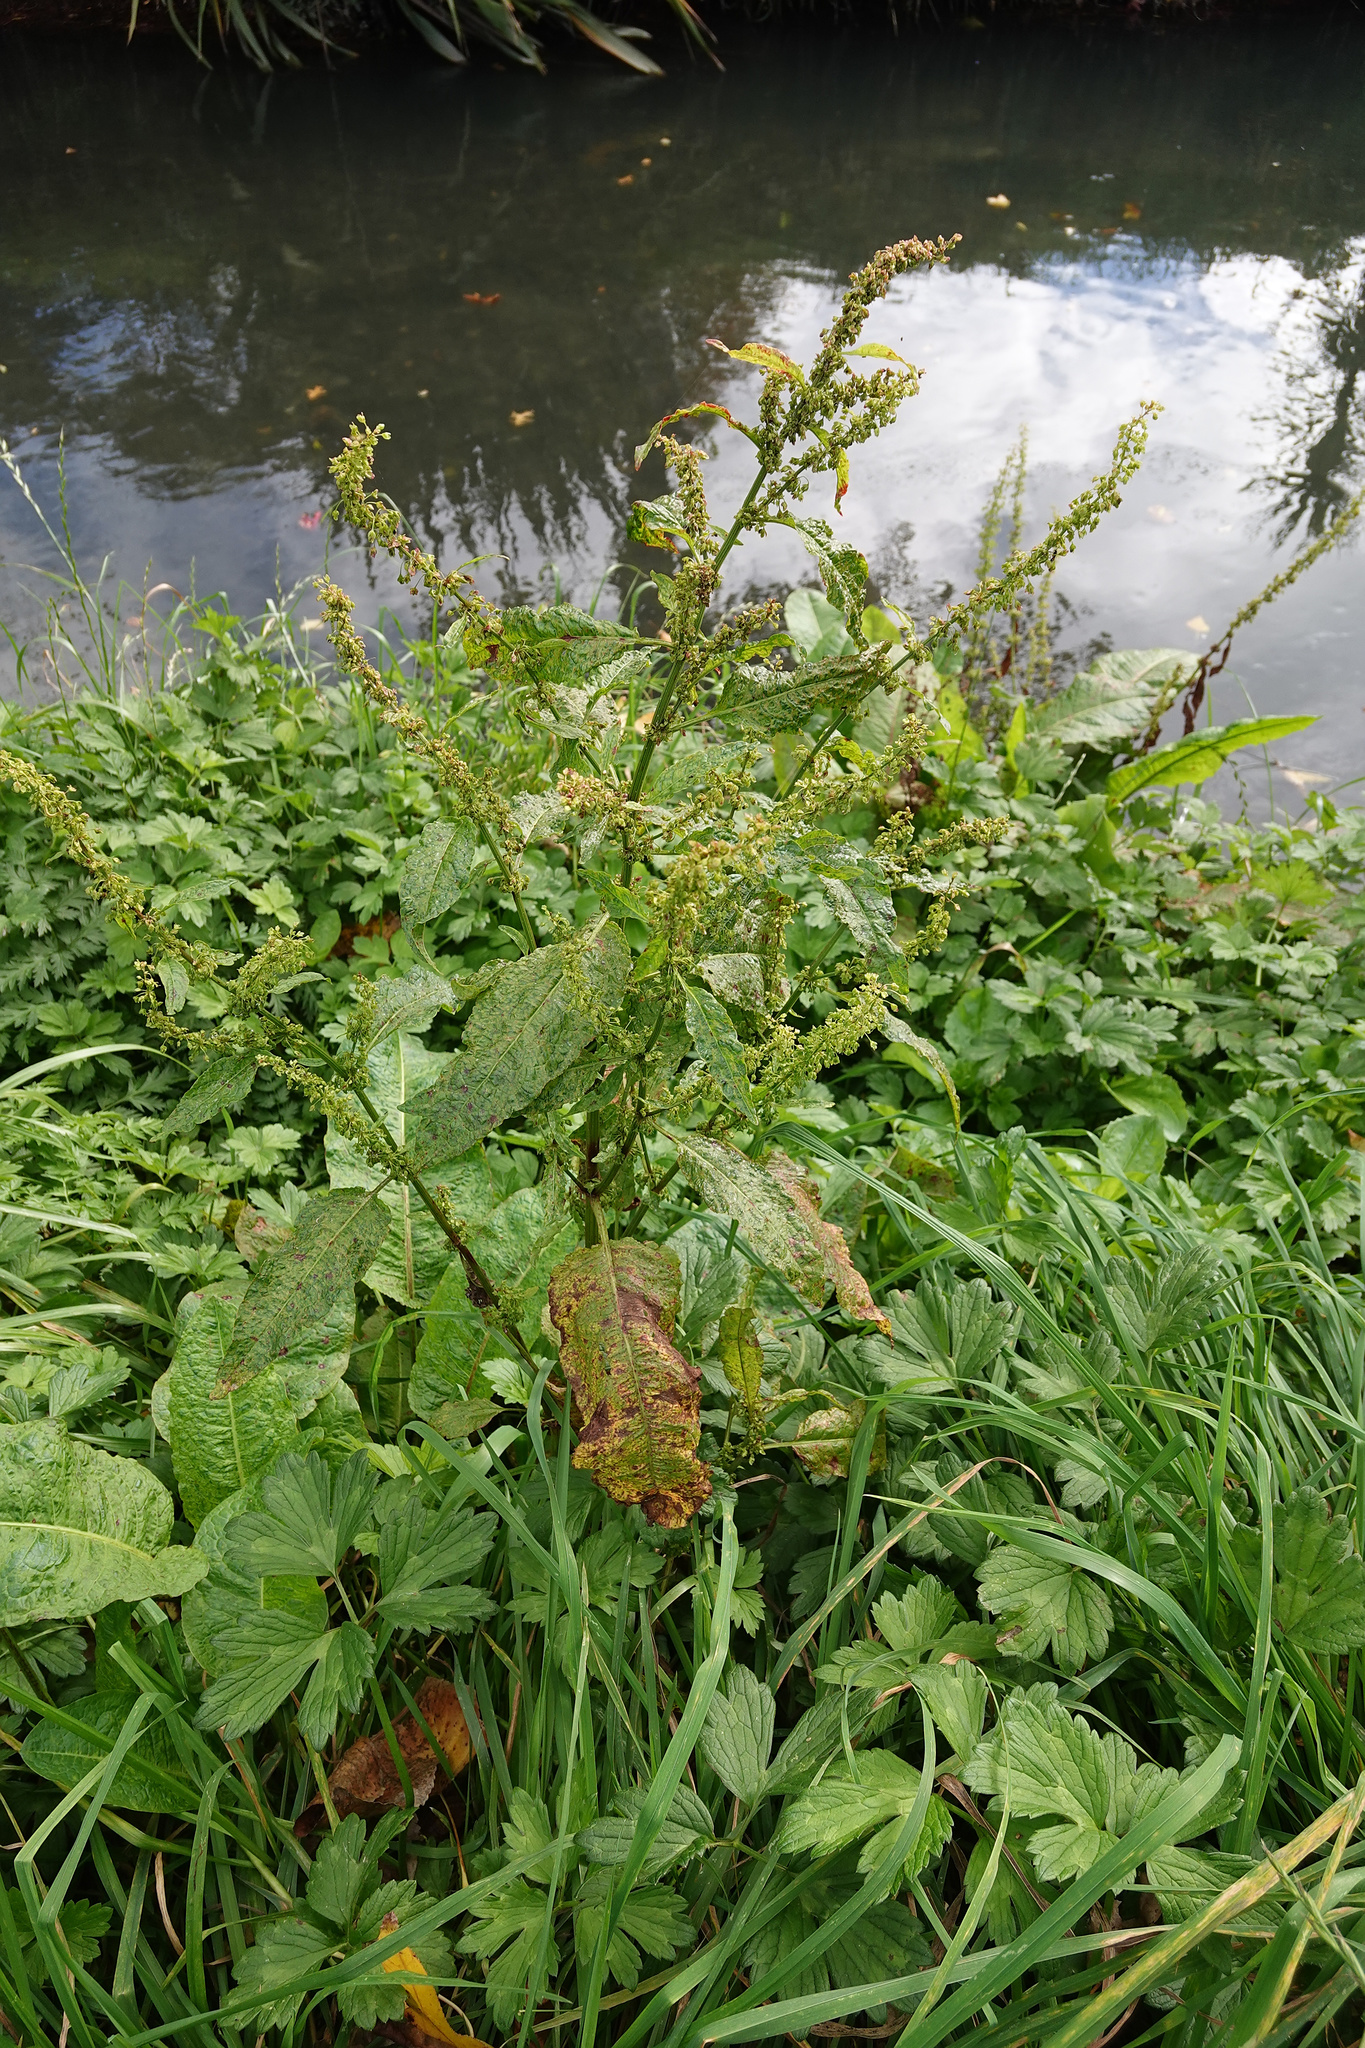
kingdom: Plantae
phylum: Tracheophyta
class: Magnoliopsida
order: Caryophyllales
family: Polygonaceae
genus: Rumex
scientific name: Rumex obtusifolius
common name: Bitter dock
